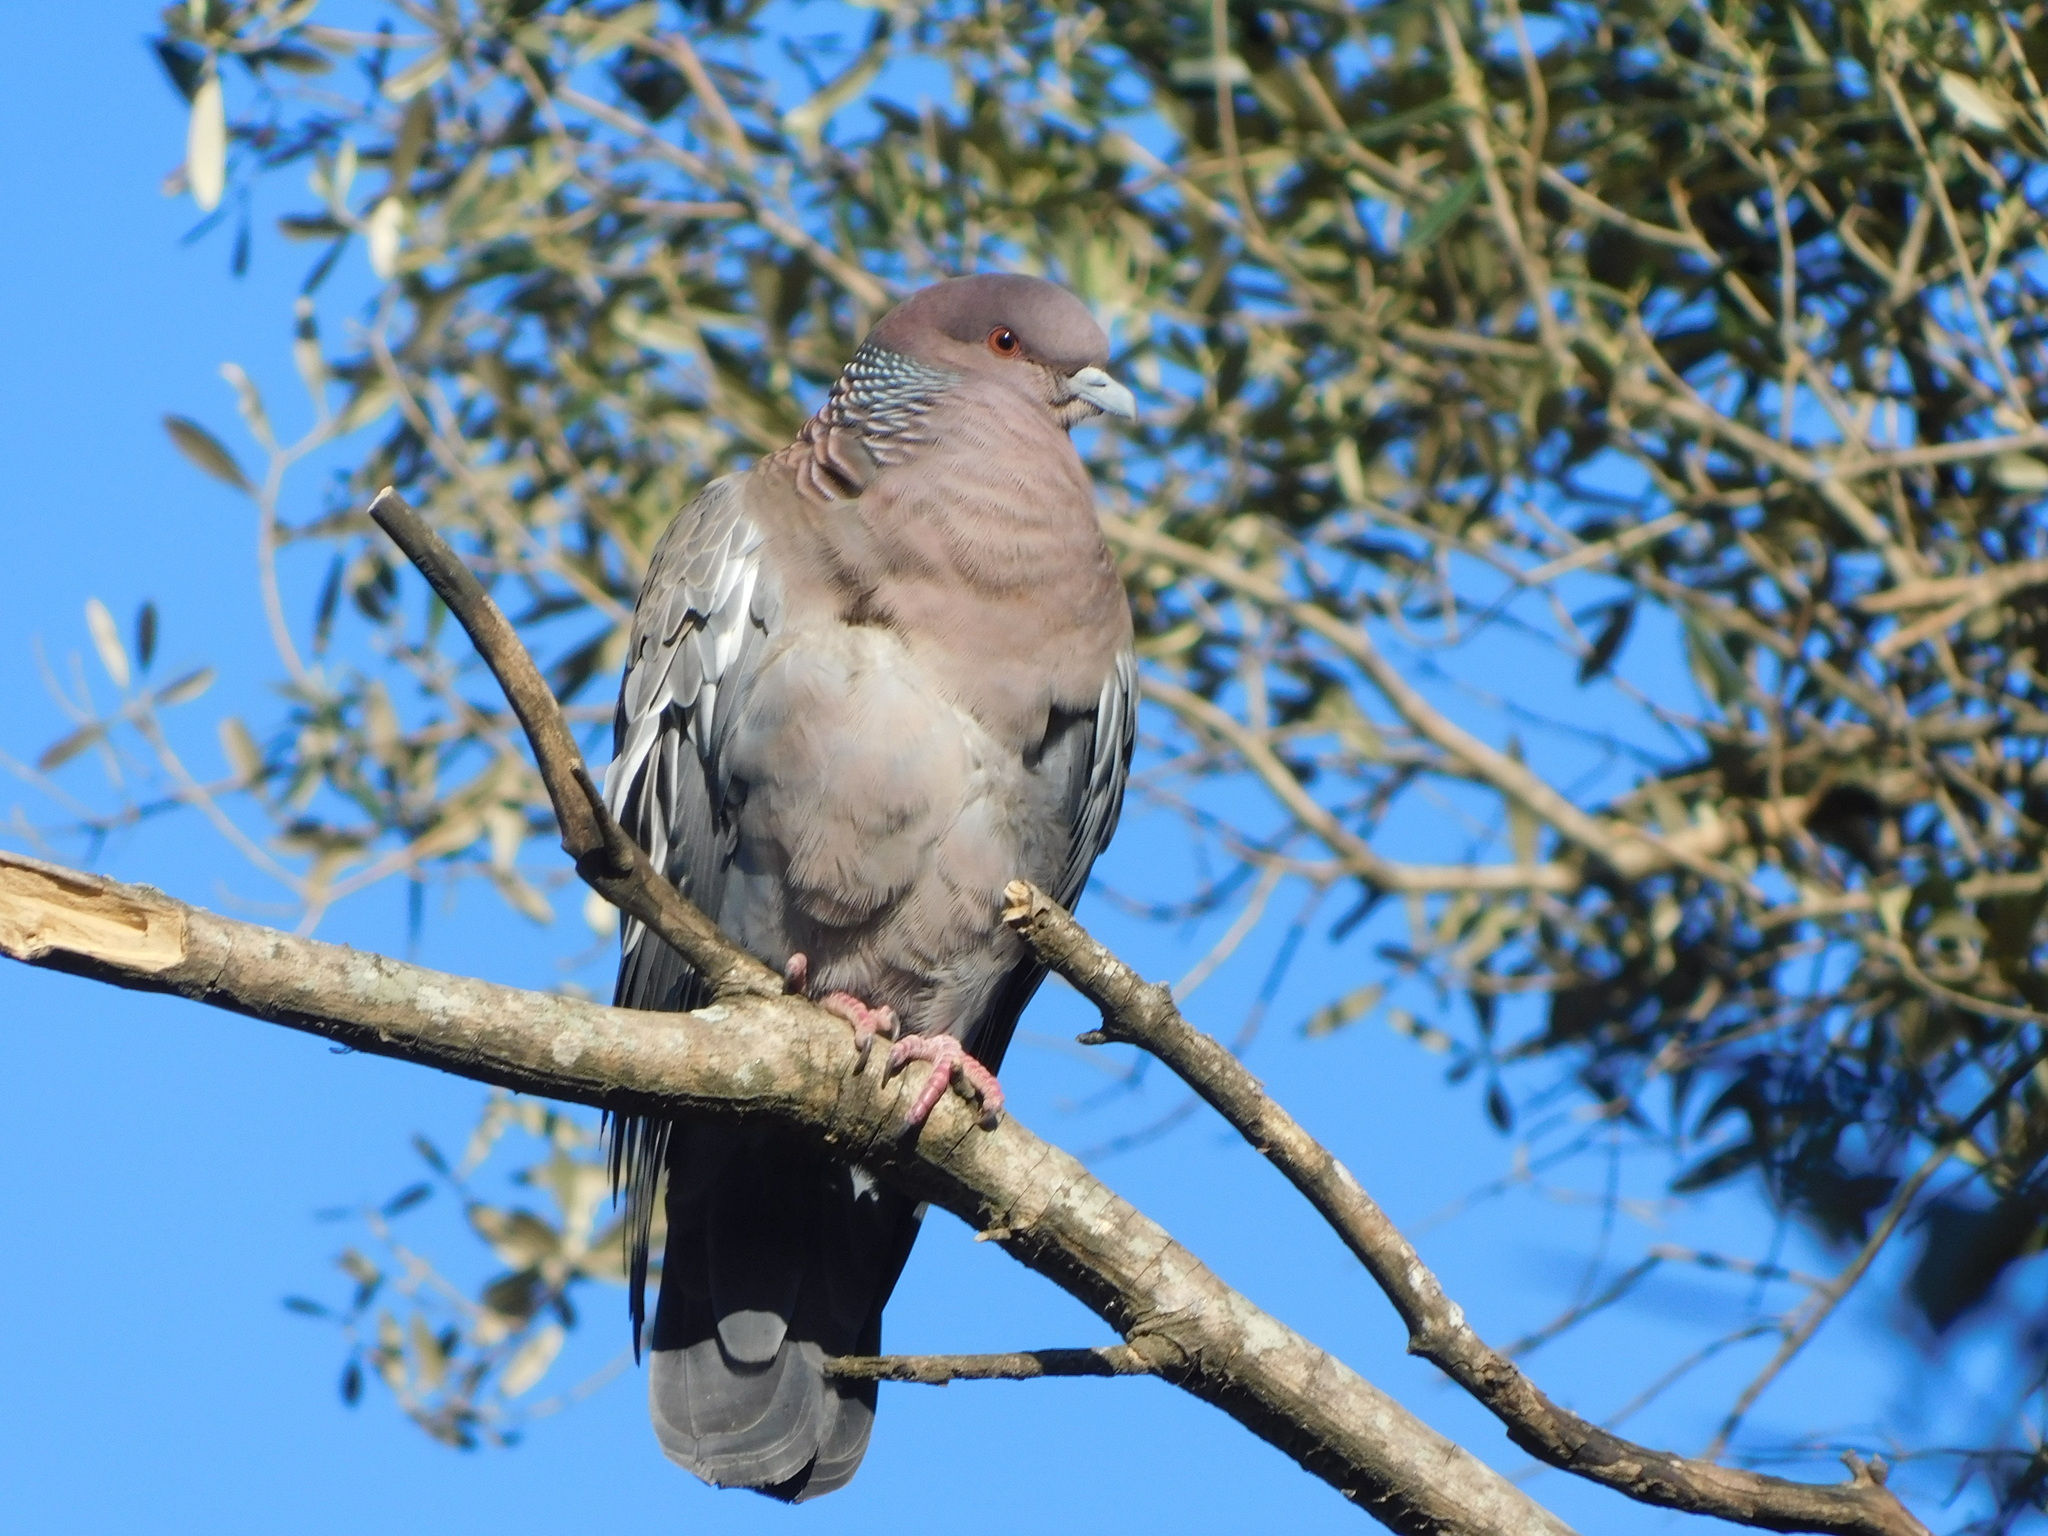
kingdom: Animalia
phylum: Chordata
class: Aves
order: Columbiformes
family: Columbidae
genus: Patagioenas
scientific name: Patagioenas picazuro
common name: Picazuro pigeon
